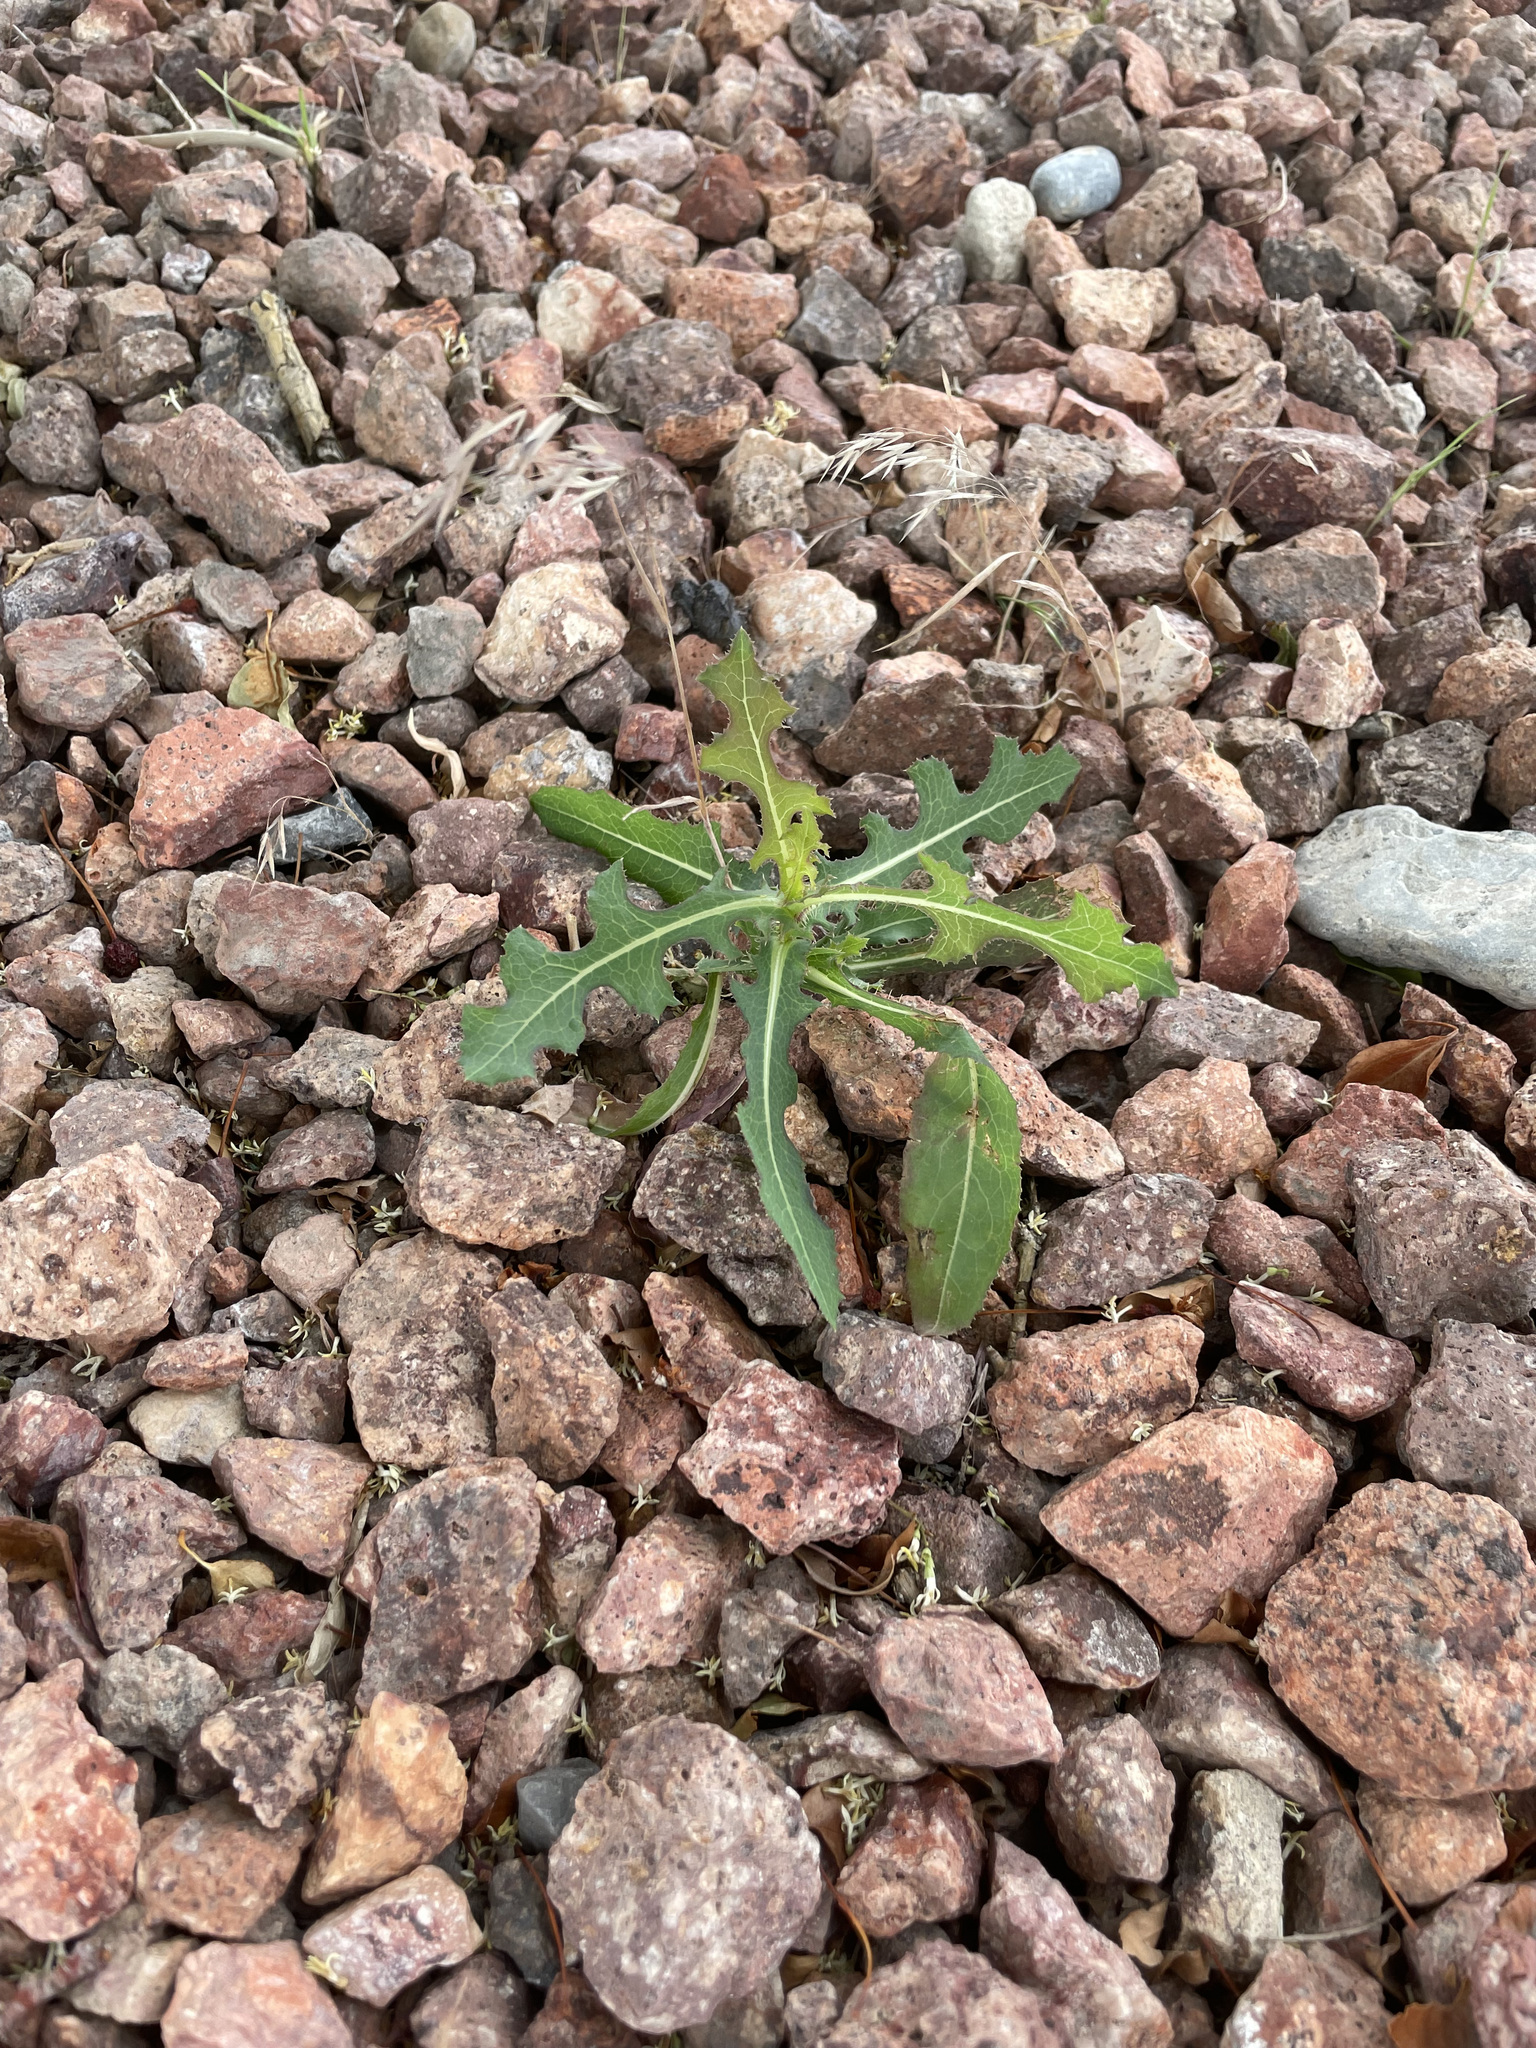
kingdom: Plantae
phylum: Tracheophyta
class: Magnoliopsida
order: Asterales
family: Asteraceae
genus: Lactuca
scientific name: Lactuca serriola
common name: Prickly lettuce
